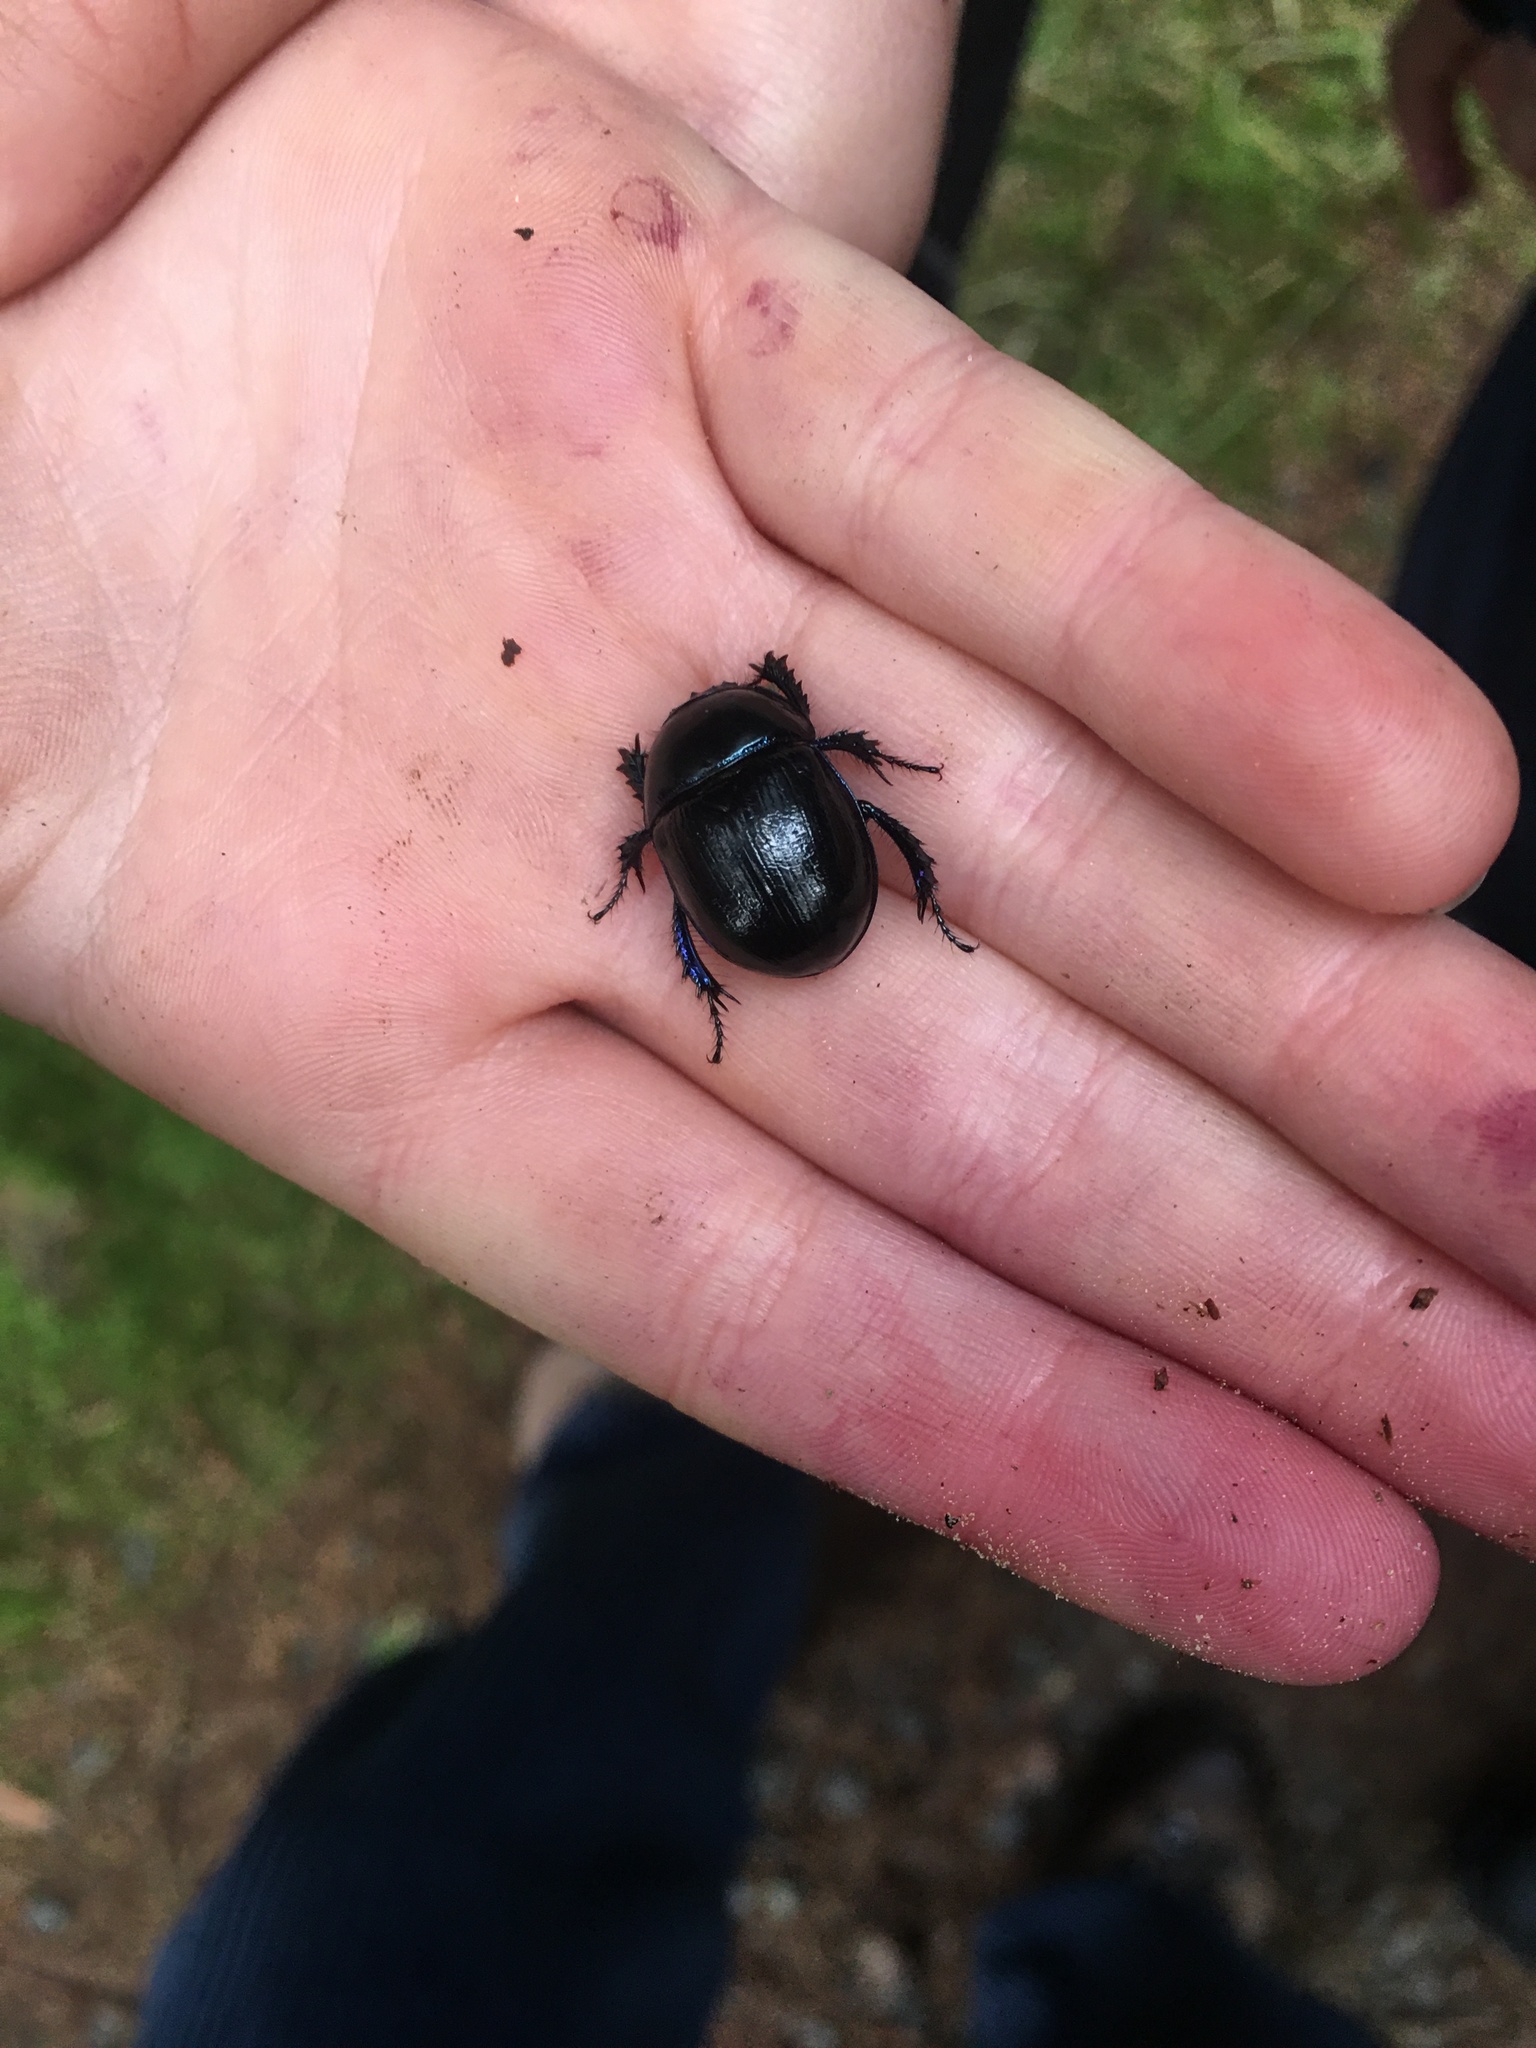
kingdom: Animalia
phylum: Arthropoda
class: Insecta
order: Coleoptera
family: Geotrupidae
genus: Anoplotrupes
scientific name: Anoplotrupes stercorosus
